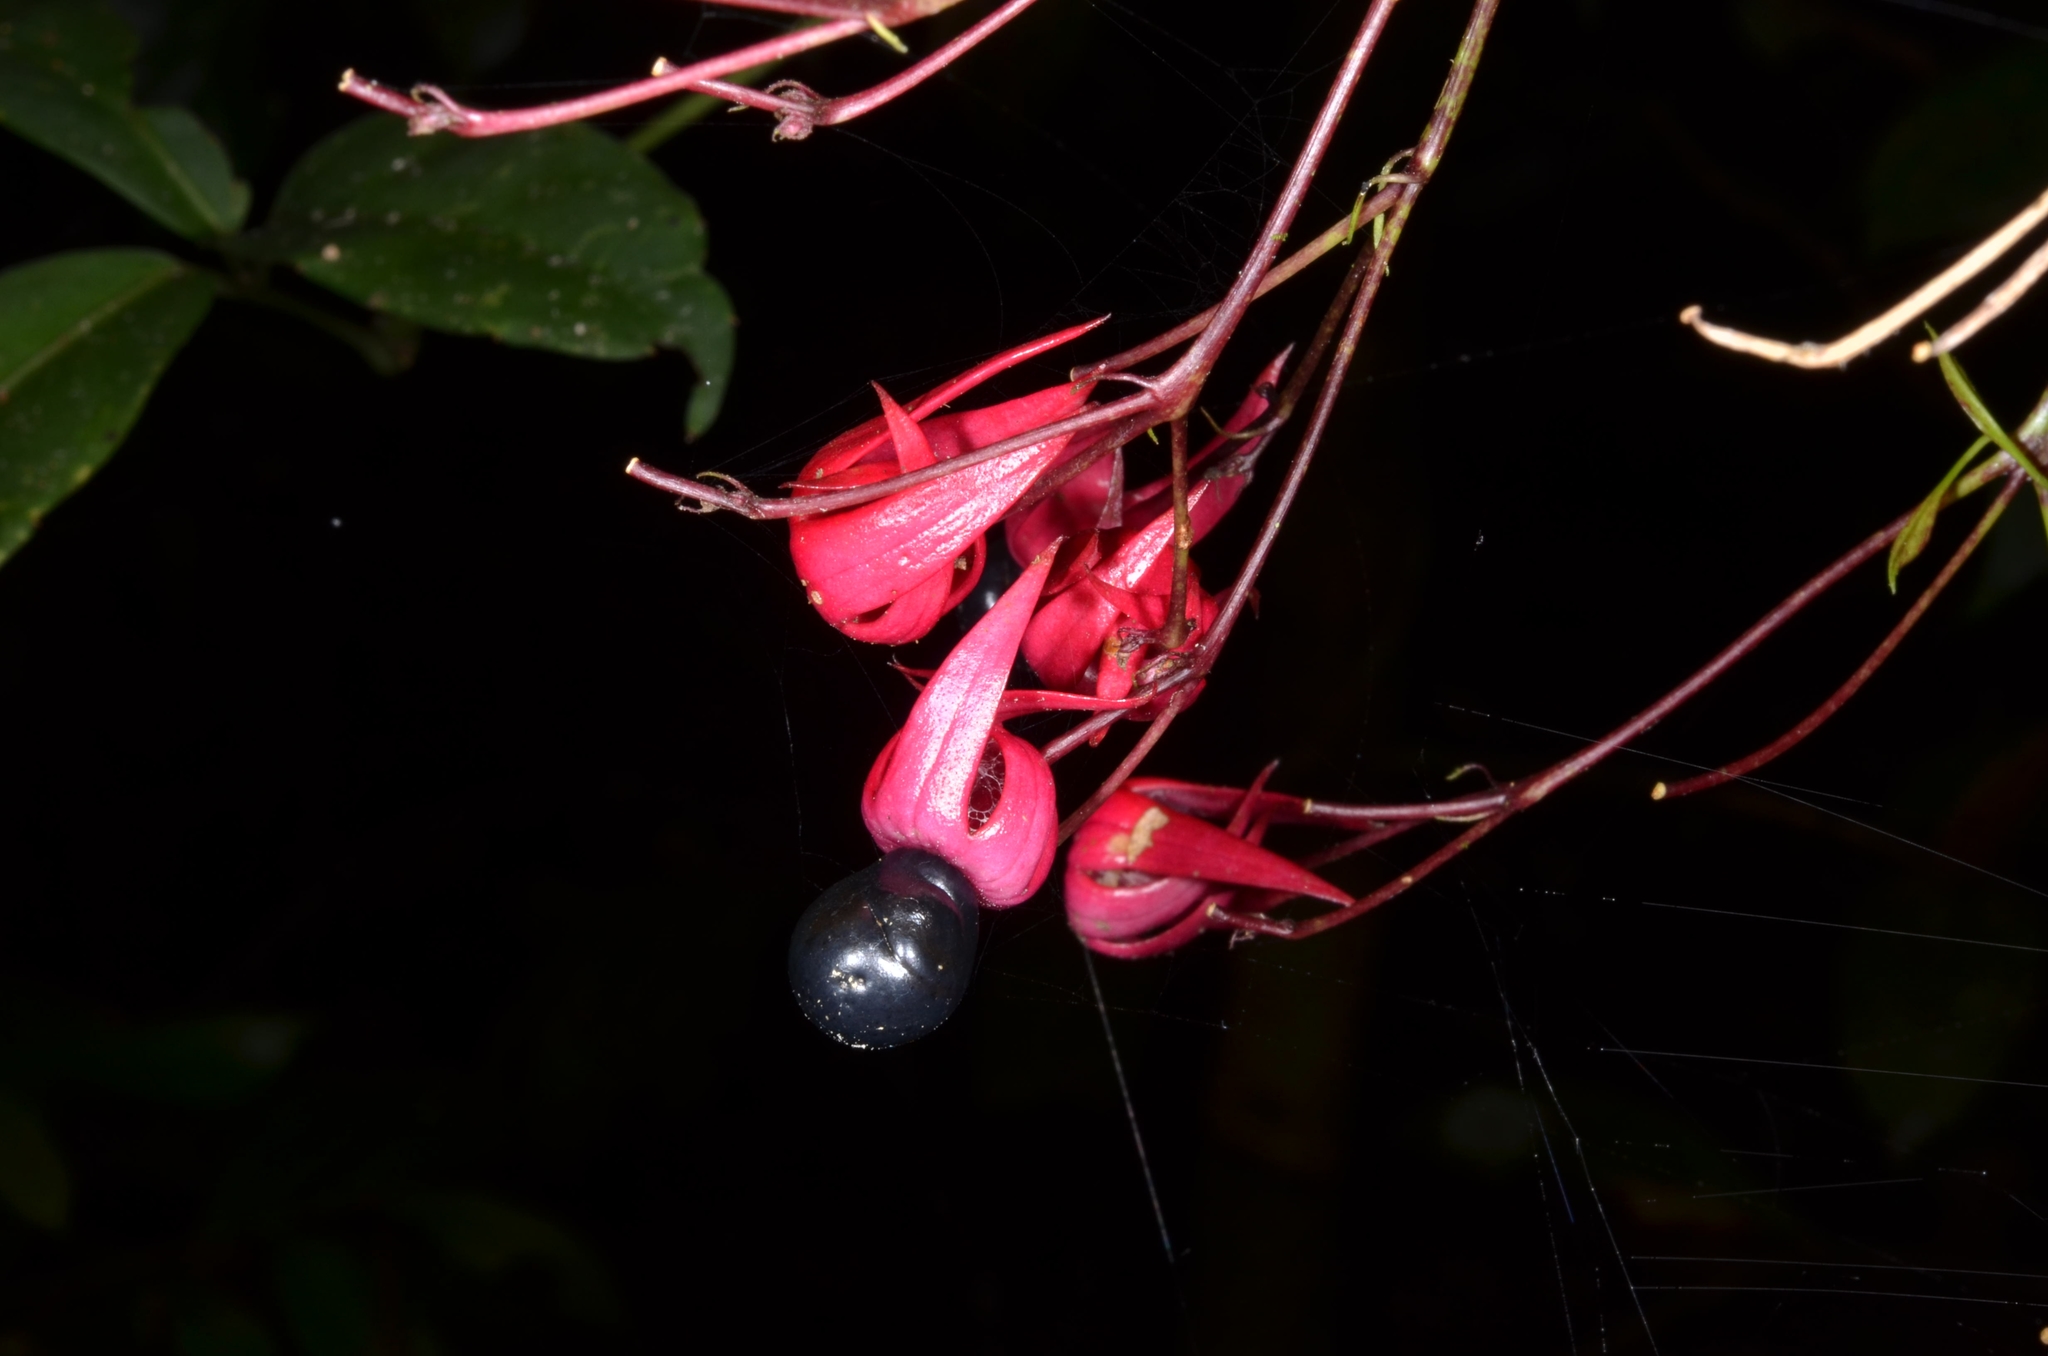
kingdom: Plantae
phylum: Tracheophyta
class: Magnoliopsida
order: Lamiales
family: Lamiaceae
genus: Clerodendrum
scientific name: Clerodendrum trichotomum
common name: Harlequin glorybower
